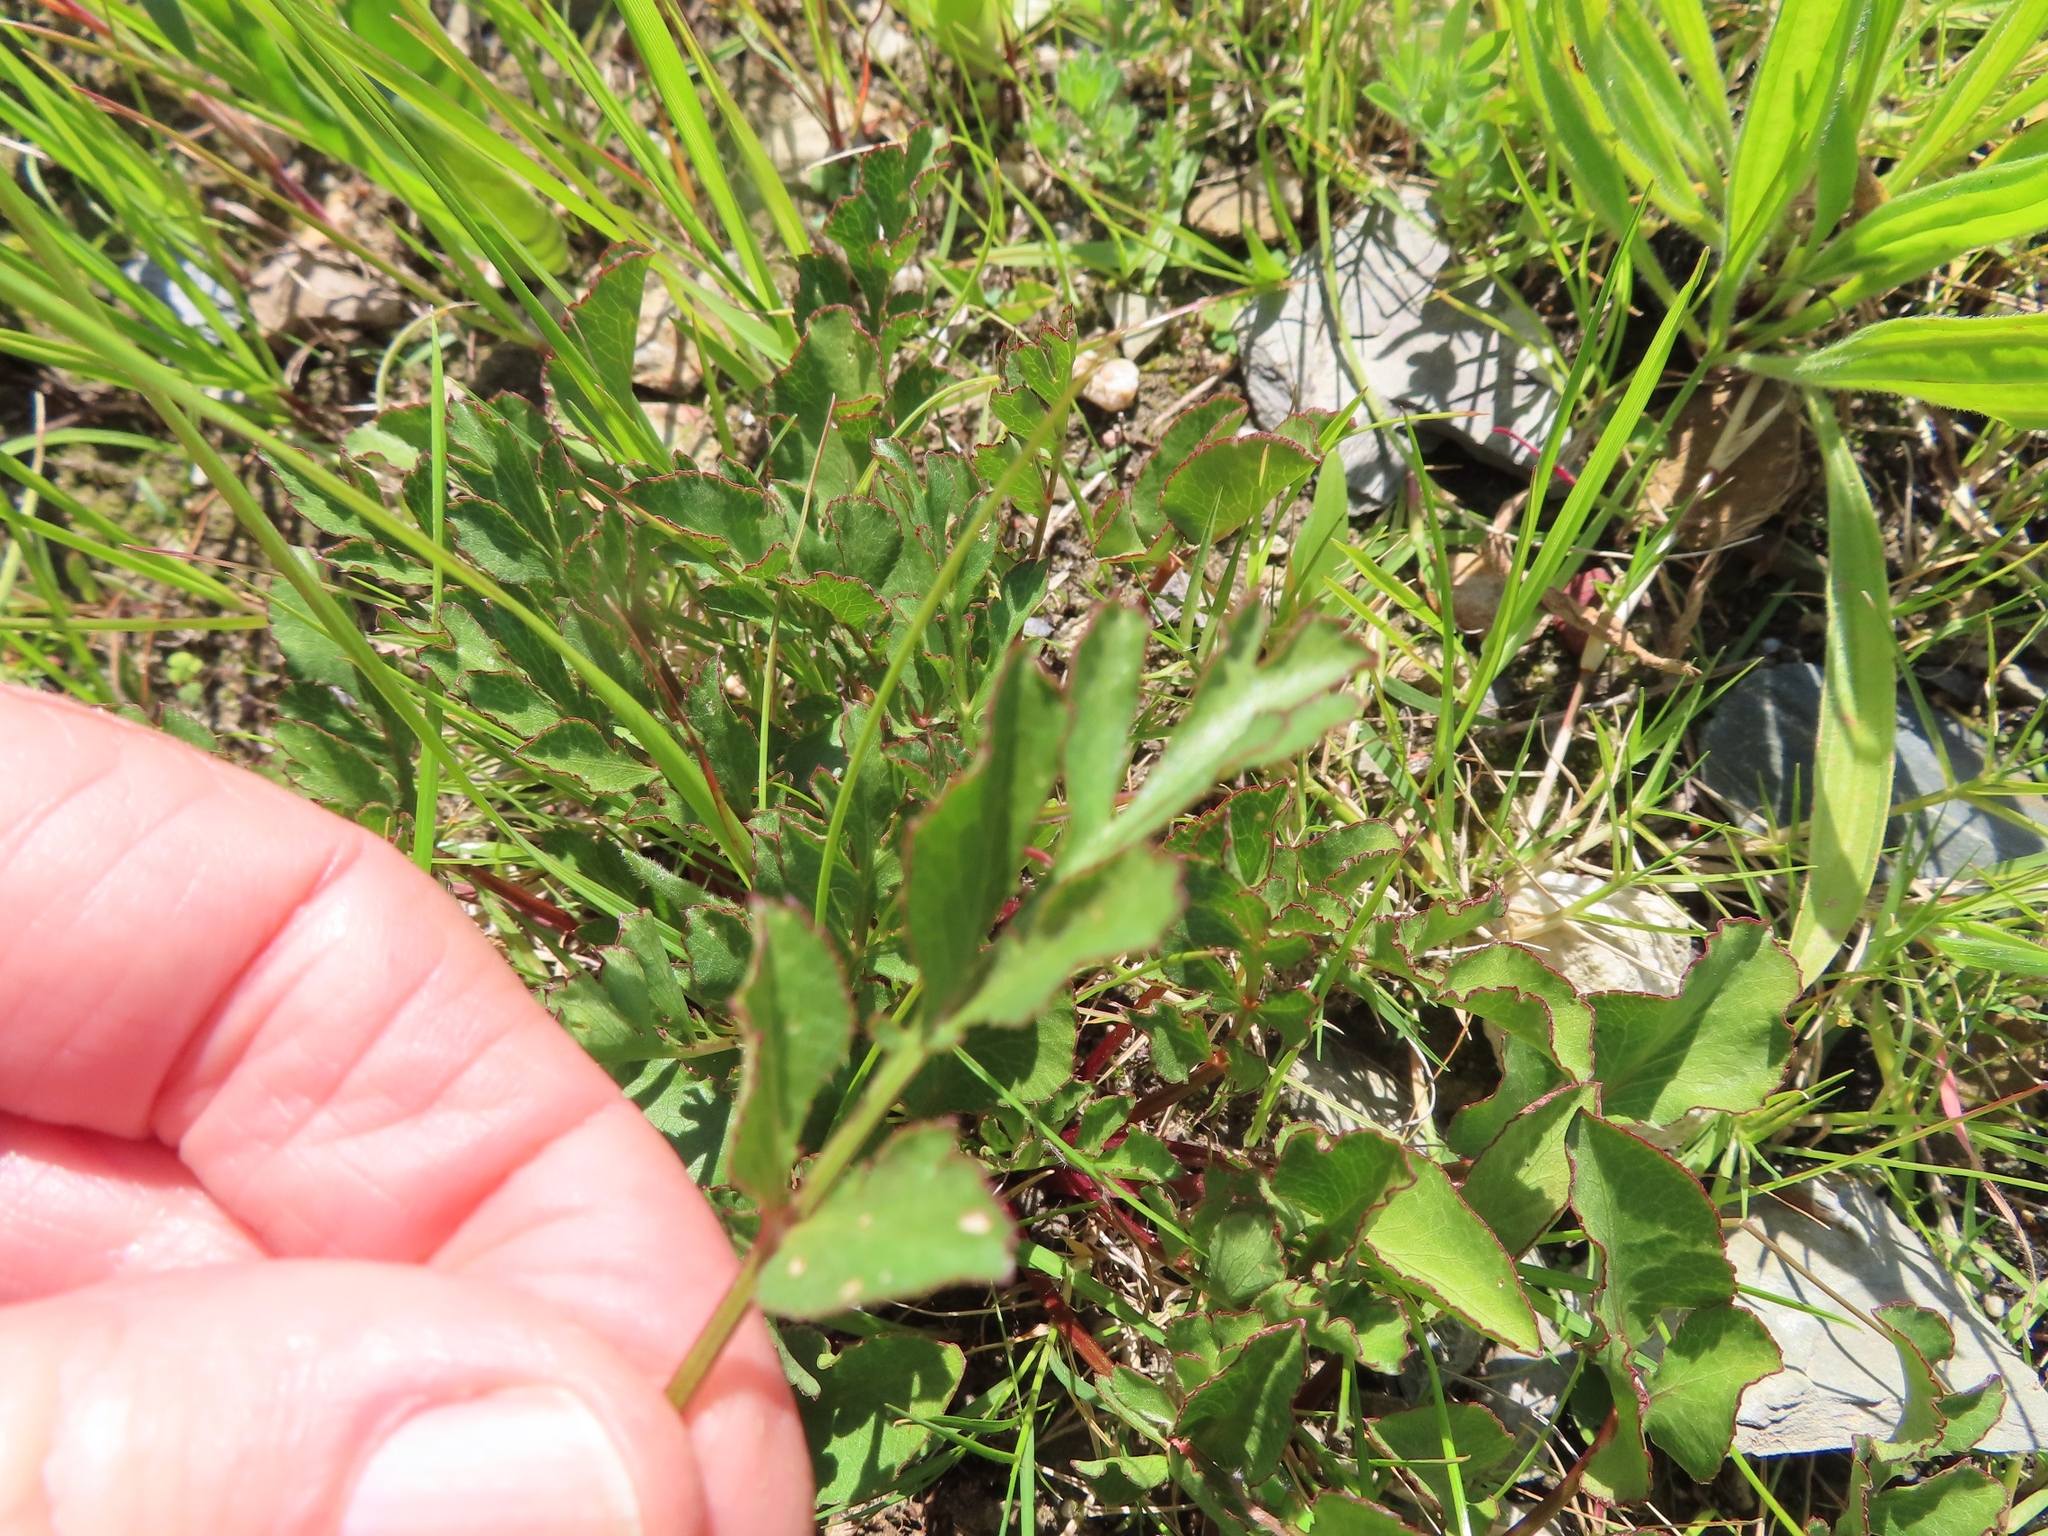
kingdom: Plantae
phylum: Tracheophyta
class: Magnoliopsida
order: Apiales
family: Apiaceae
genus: Lichtensteinia
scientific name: Lichtensteinia obscura
